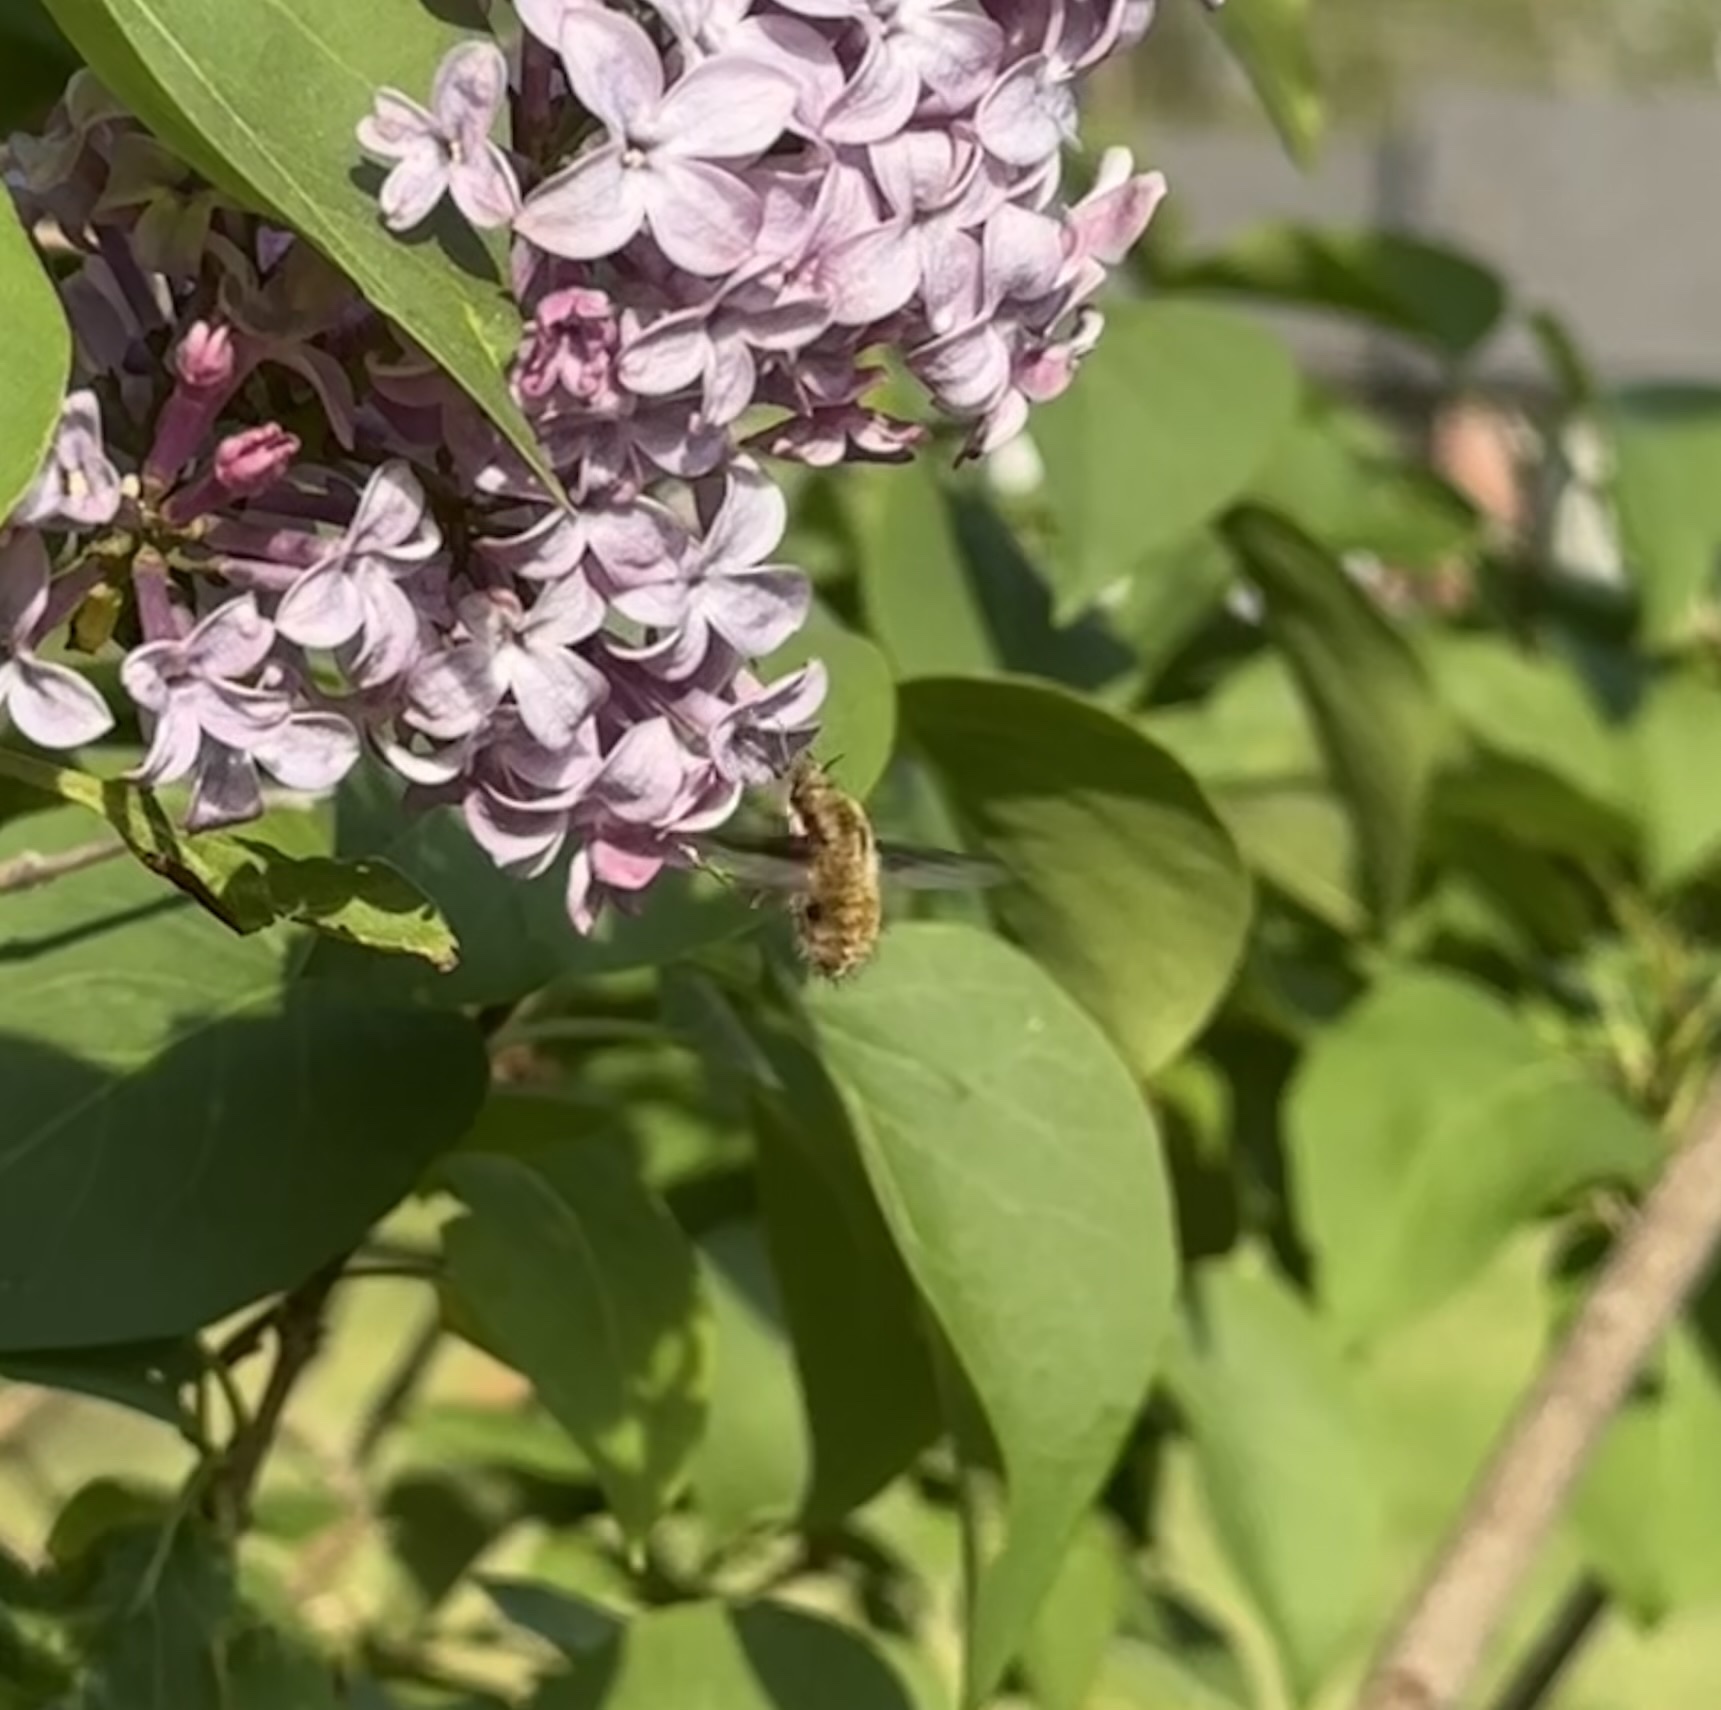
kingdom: Animalia
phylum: Arthropoda
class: Insecta
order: Lepidoptera
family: Sphingidae
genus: Hemaris
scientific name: Hemaris diffinis
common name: Bumblebee moth
